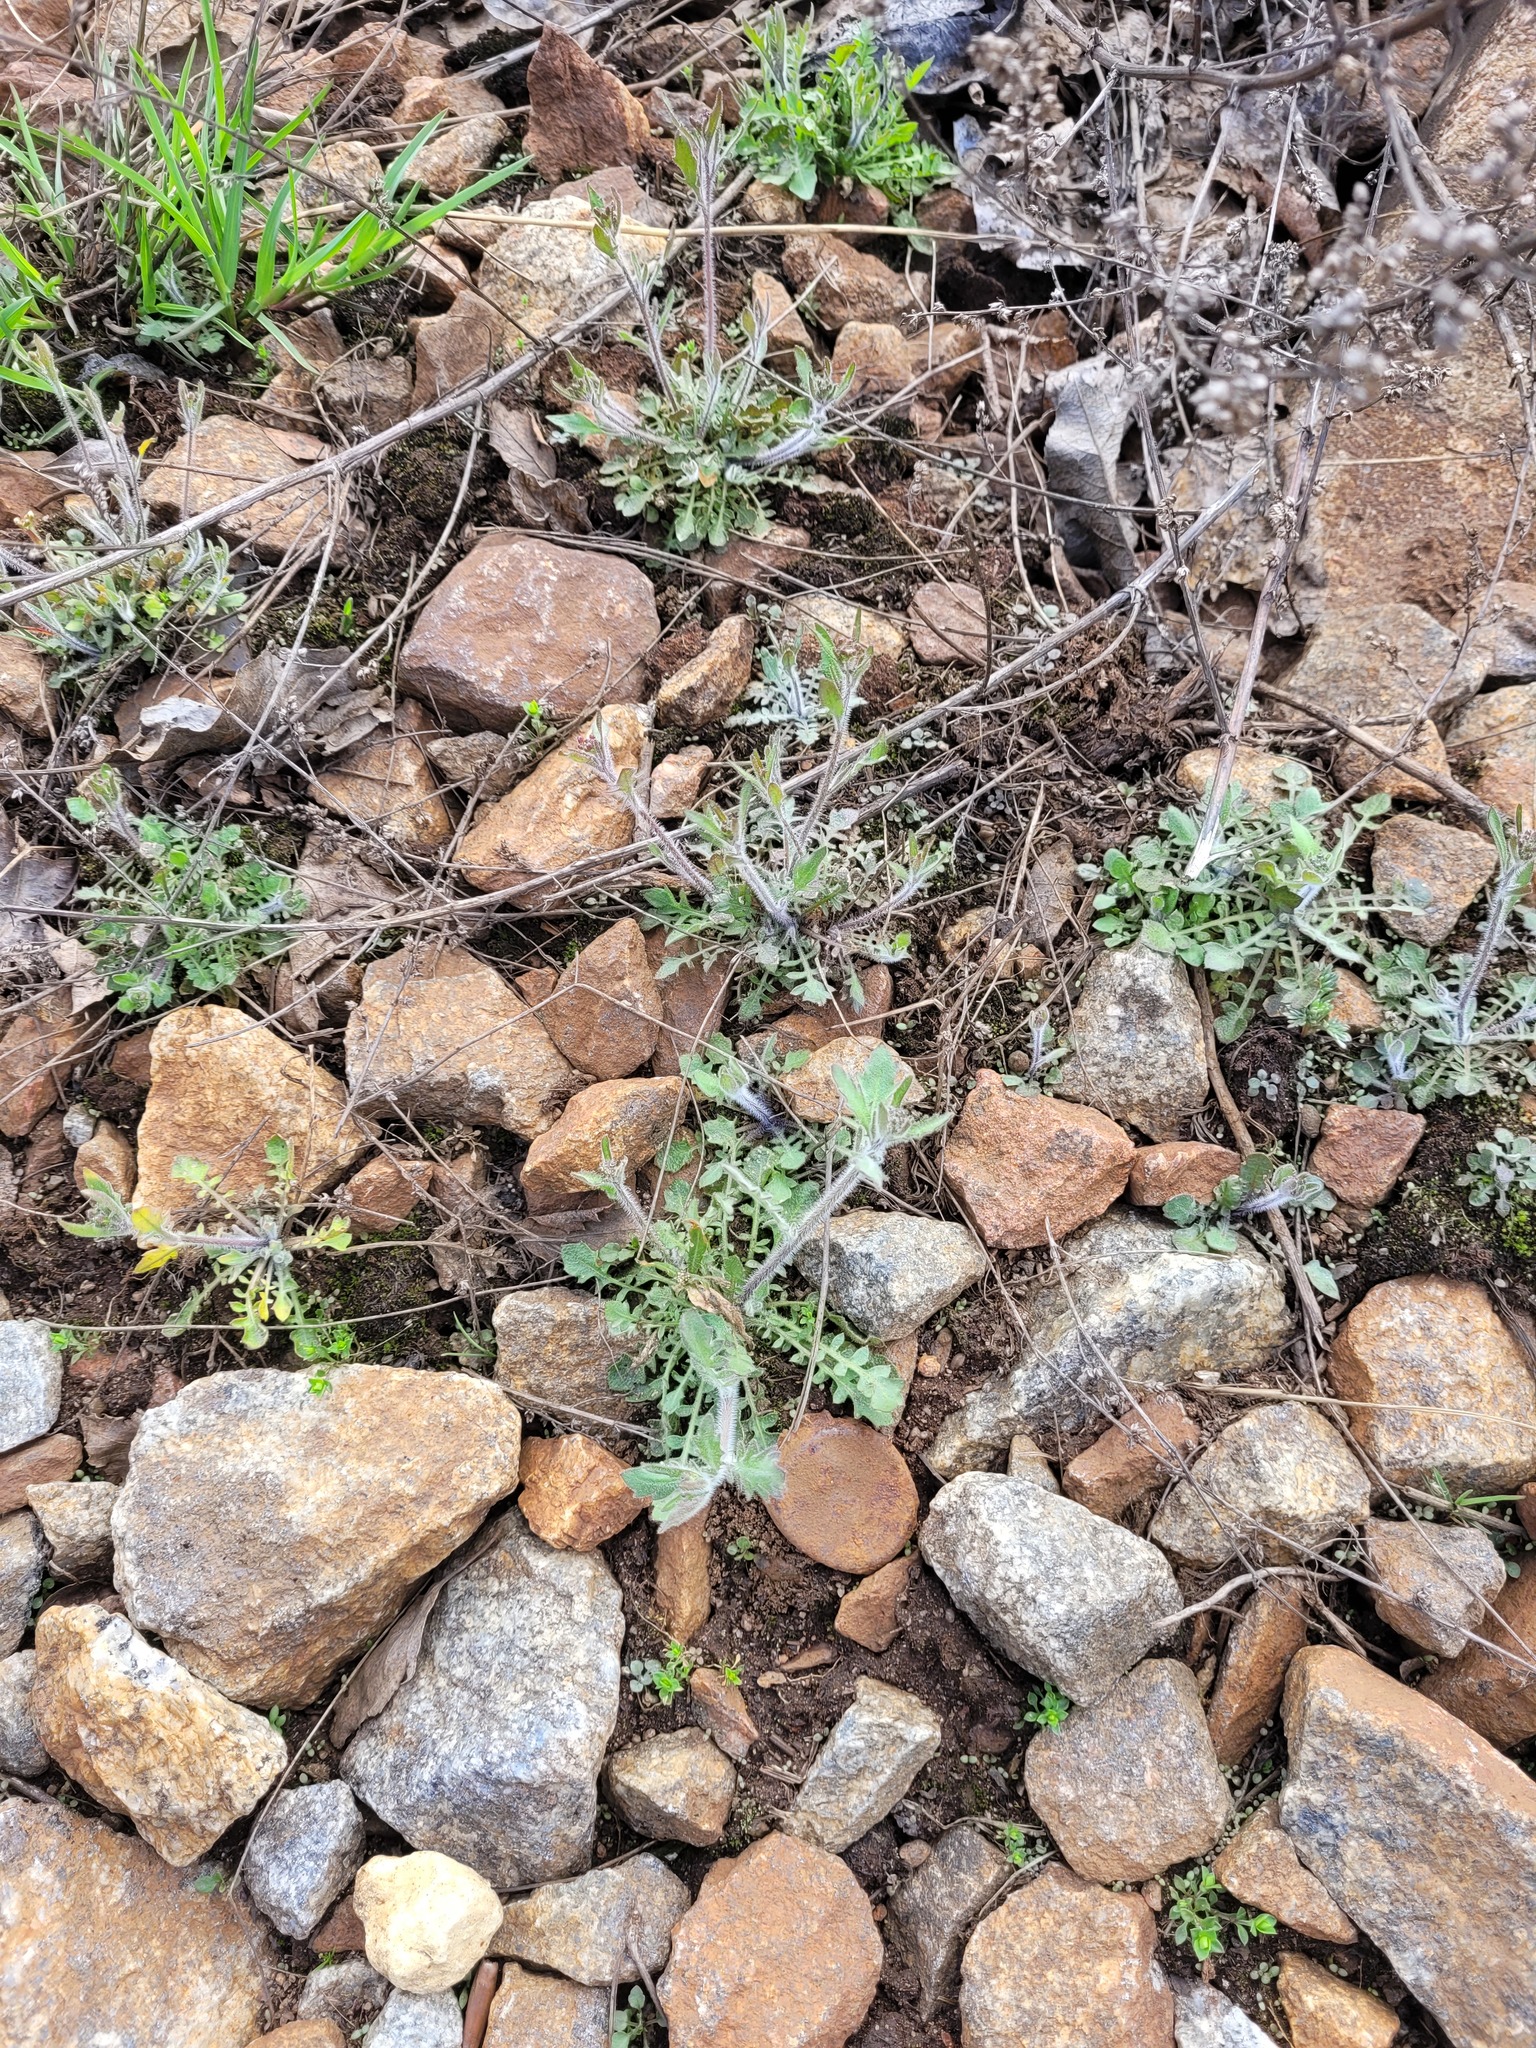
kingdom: Plantae
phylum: Tracheophyta
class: Magnoliopsida
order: Brassicales
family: Brassicaceae
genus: Arabidopsis
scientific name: Arabidopsis arenosa
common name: Sand rock-cress
